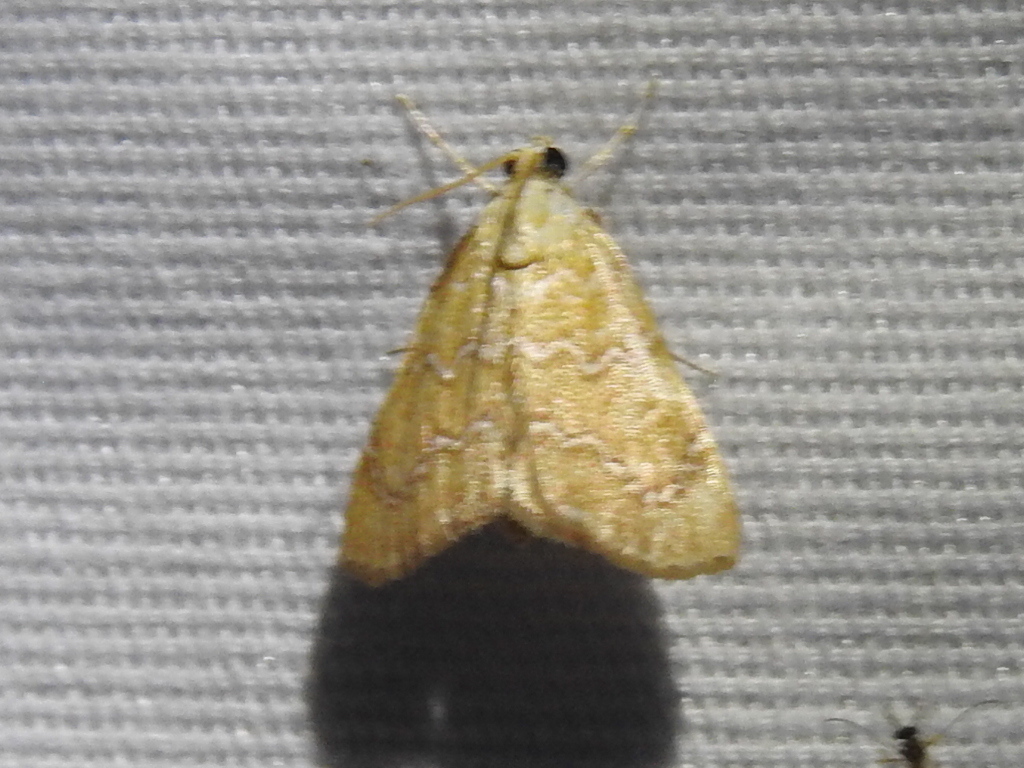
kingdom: Animalia
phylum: Arthropoda
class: Insecta
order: Lepidoptera
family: Crambidae
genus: Glaphyria
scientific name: Glaphyria sesquistrialis
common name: White-roped glaphyria
